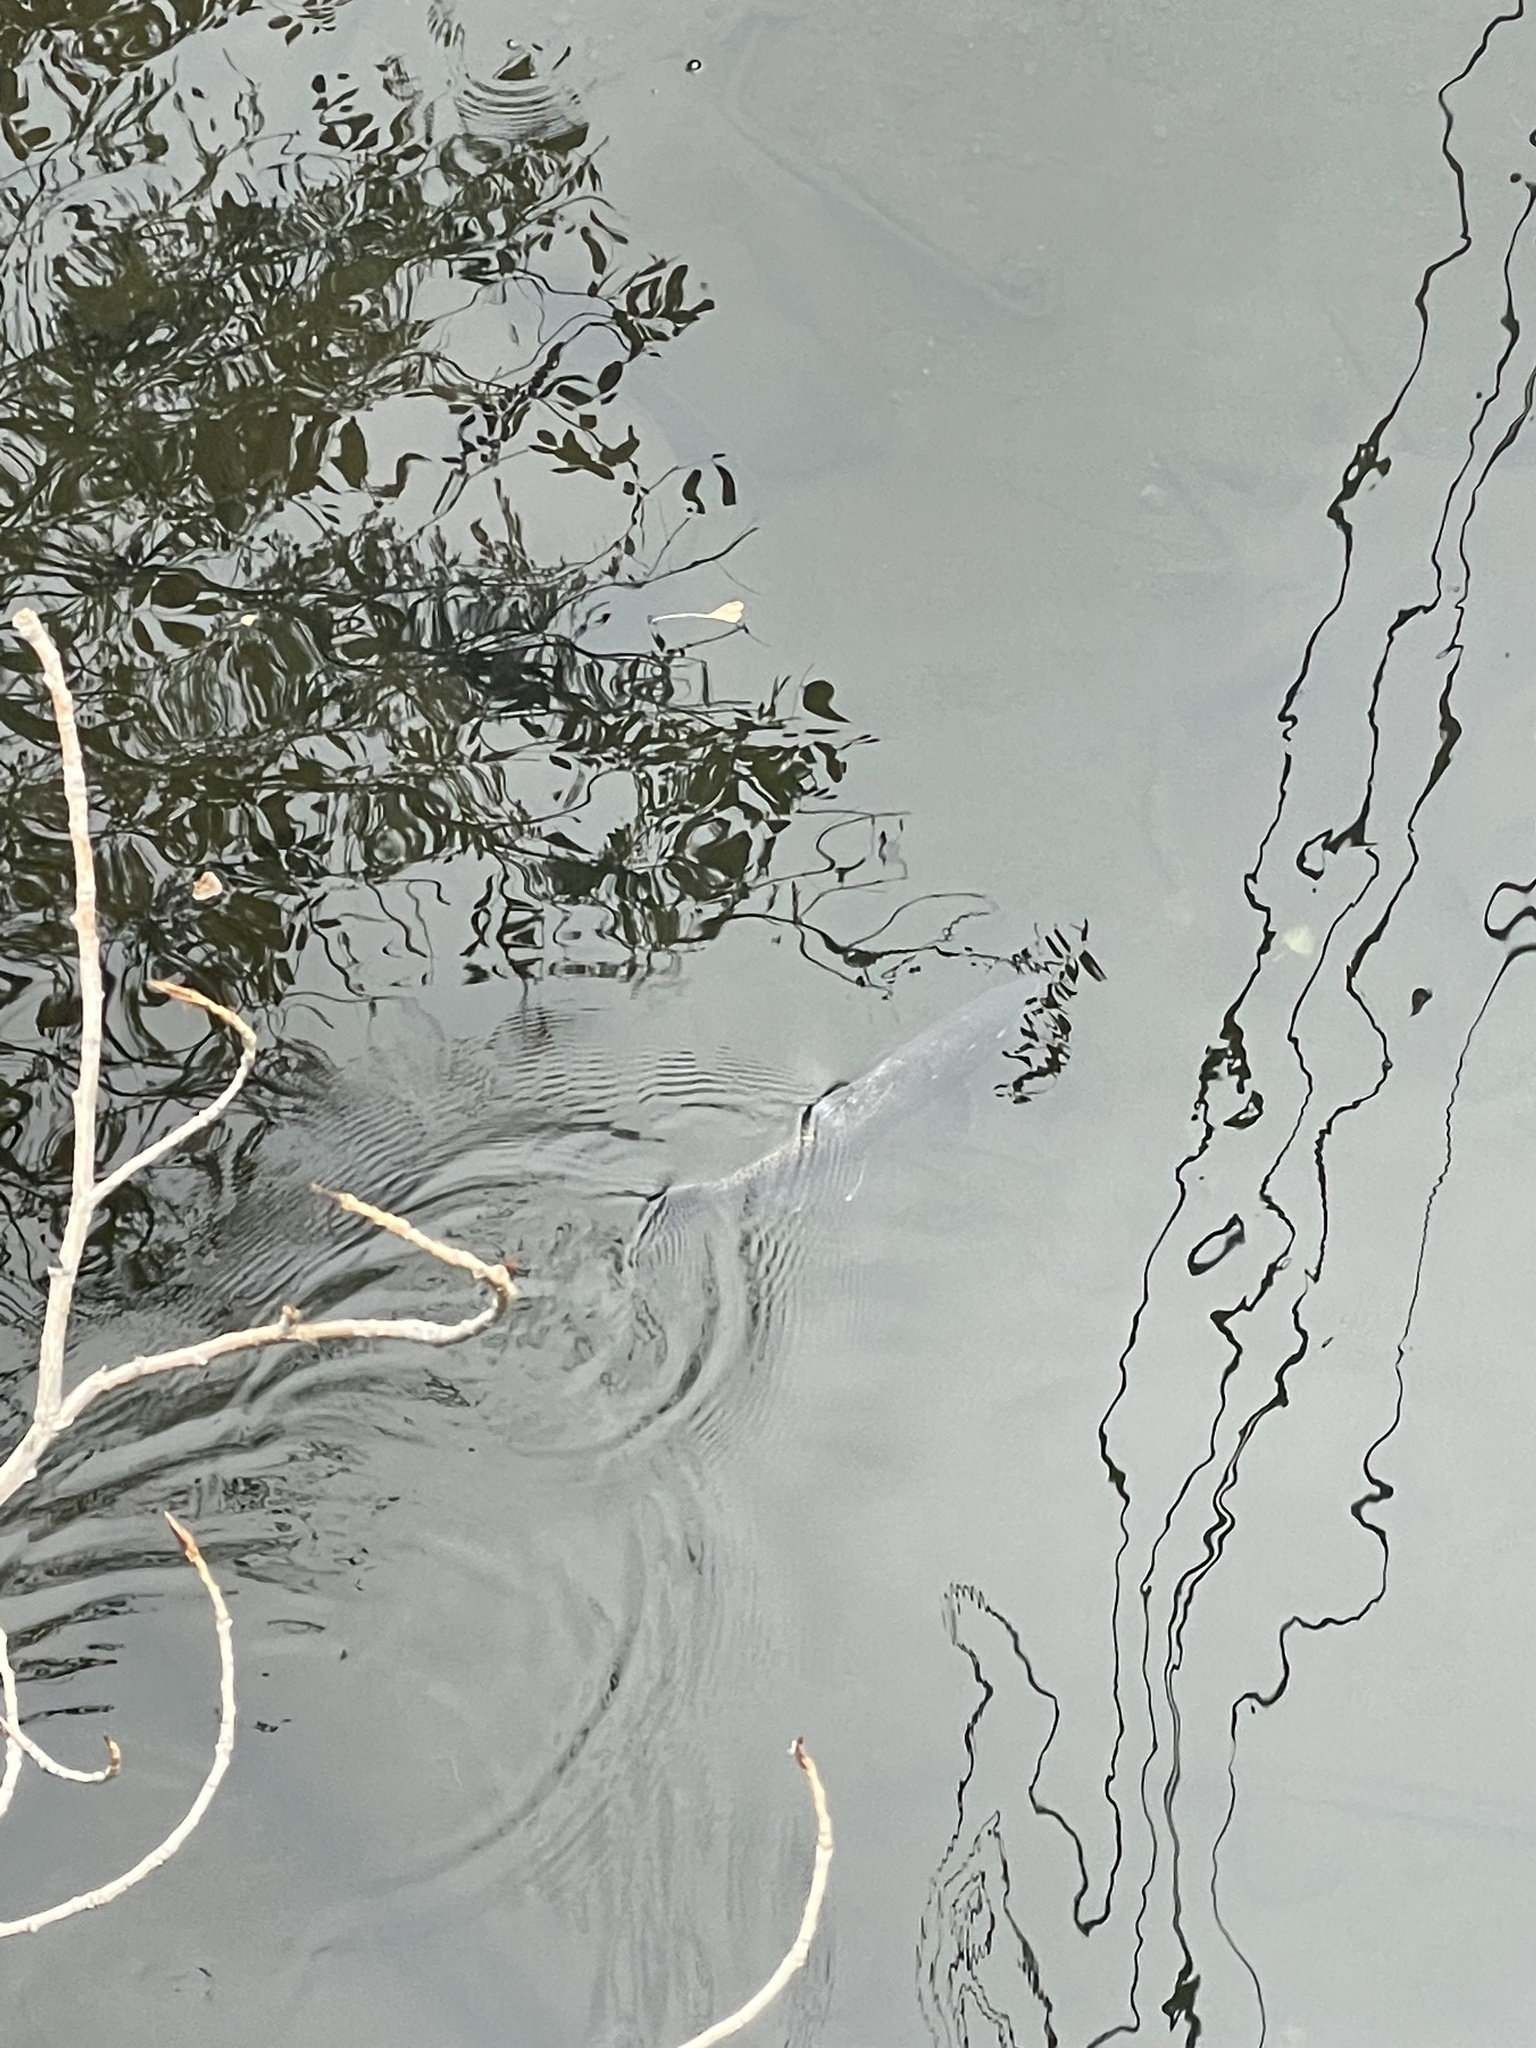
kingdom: Animalia
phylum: Chordata
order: Salmoniformes
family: Salmonidae
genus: Oncorhynchus
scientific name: Oncorhynchus tshawytscha
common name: Chinook salmon
